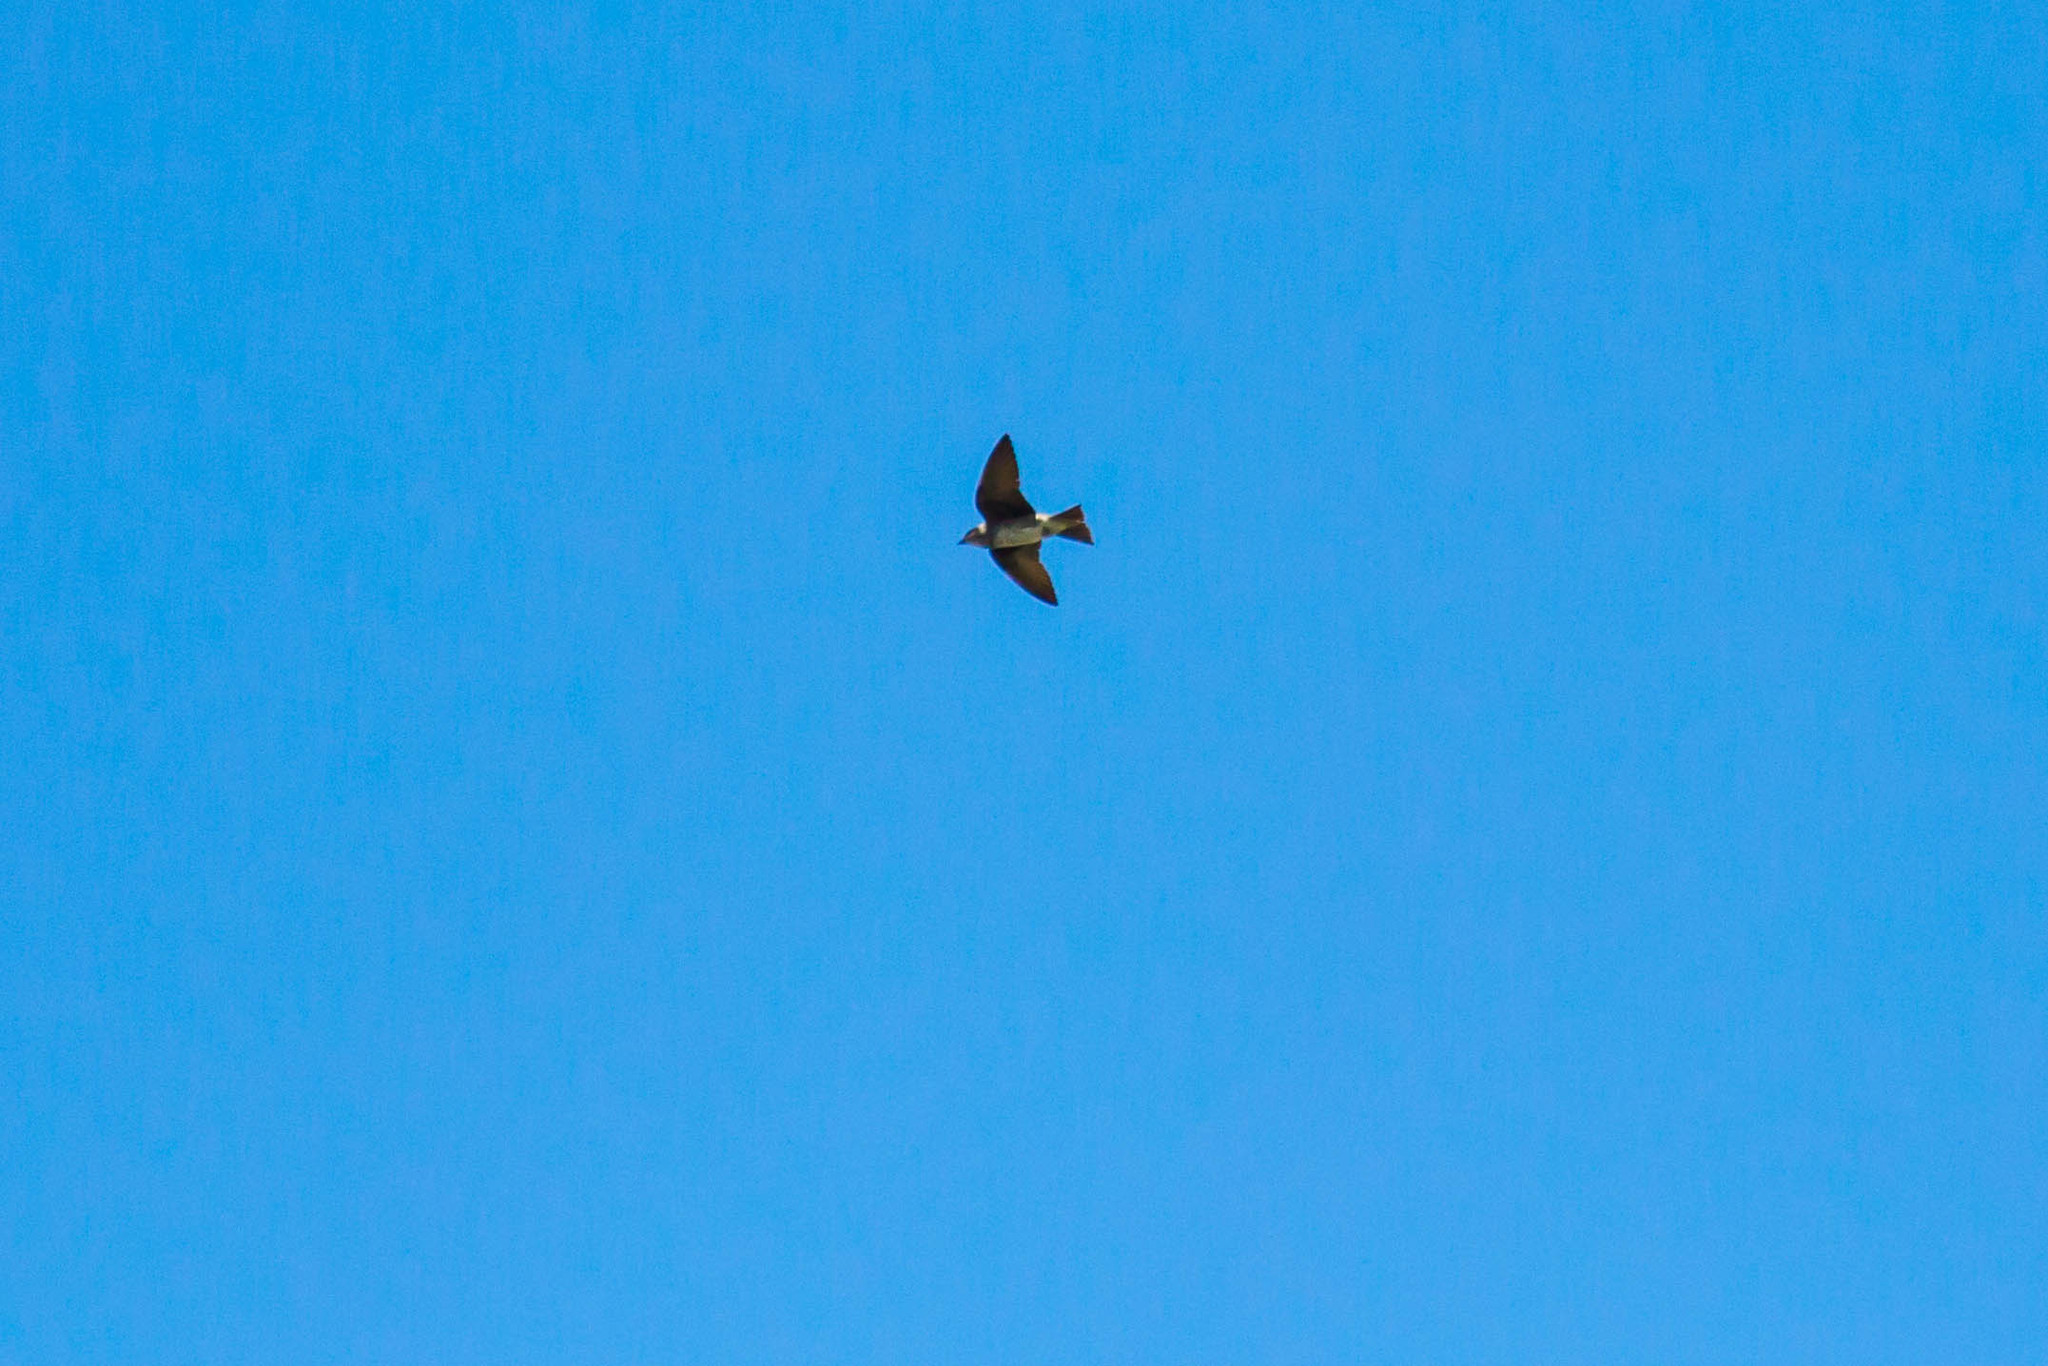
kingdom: Animalia
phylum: Chordata
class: Aves
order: Passeriformes
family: Hirundinidae
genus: Petrochelidon
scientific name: Petrochelidon pyrrhonota
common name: American cliff swallow
